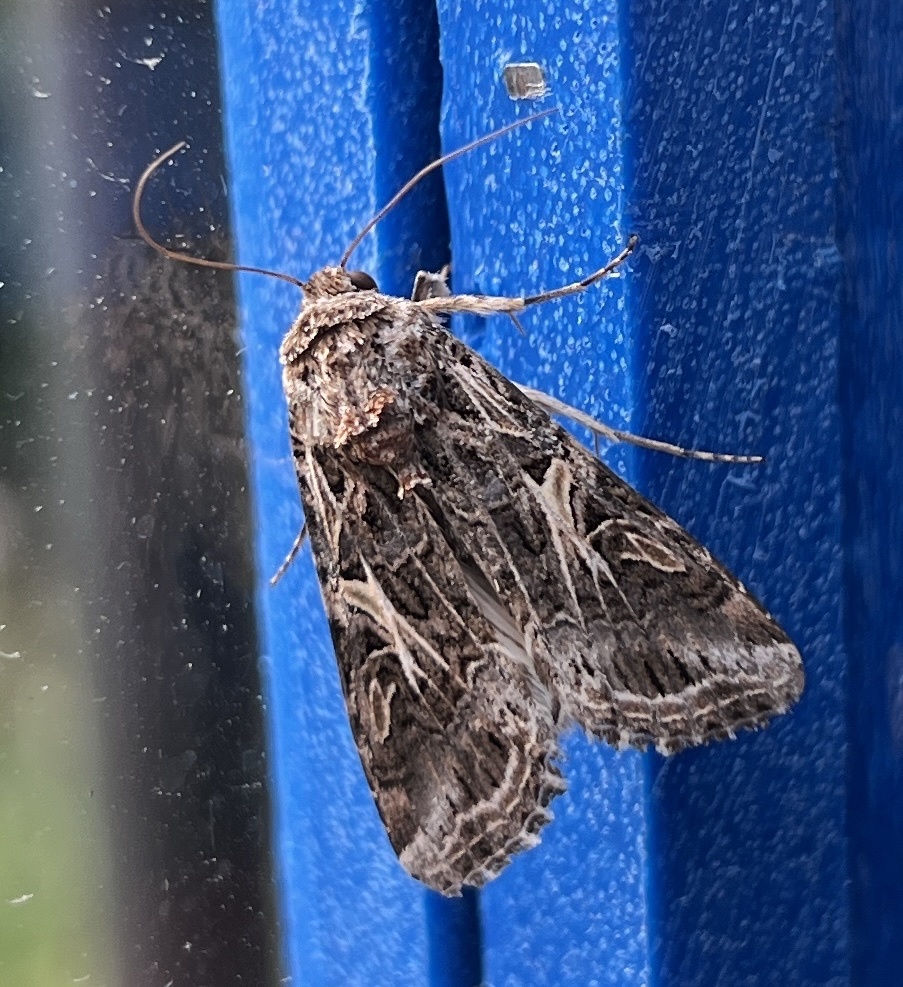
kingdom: Animalia
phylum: Arthropoda
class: Insecta
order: Lepidoptera
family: Noctuidae
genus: Spodoptera
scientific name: Spodoptera ornithogalli
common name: Yellow-striped armyworm
